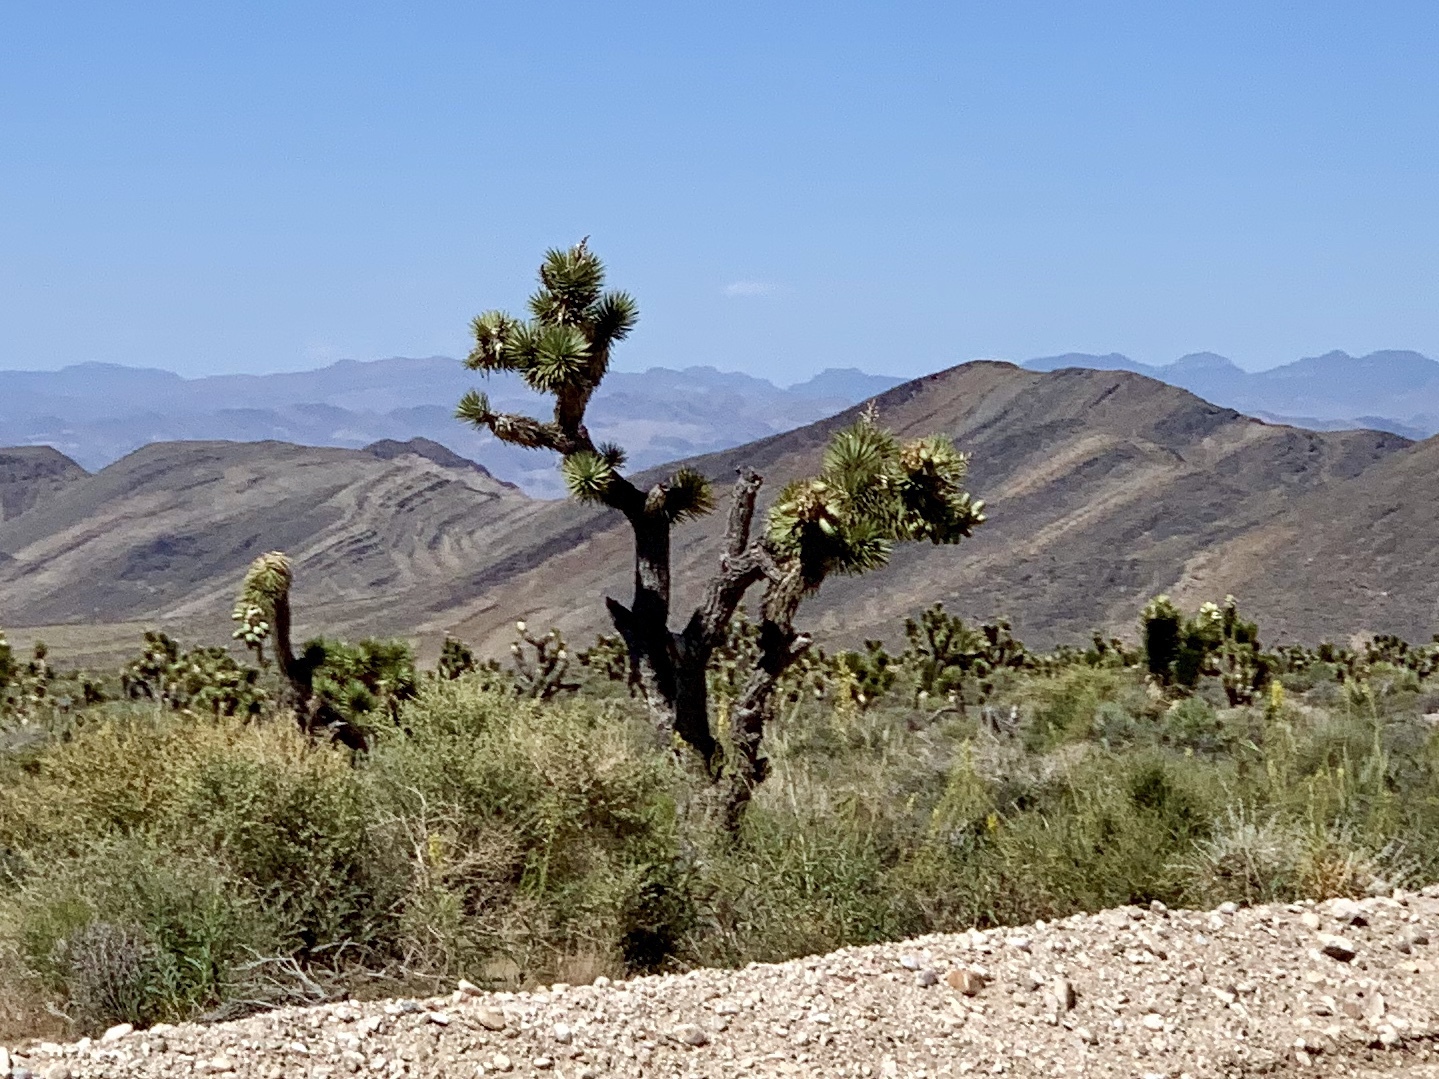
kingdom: Plantae
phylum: Tracheophyta
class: Liliopsida
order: Asparagales
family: Asparagaceae
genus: Yucca
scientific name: Yucca brevifolia
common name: Joshua tree
